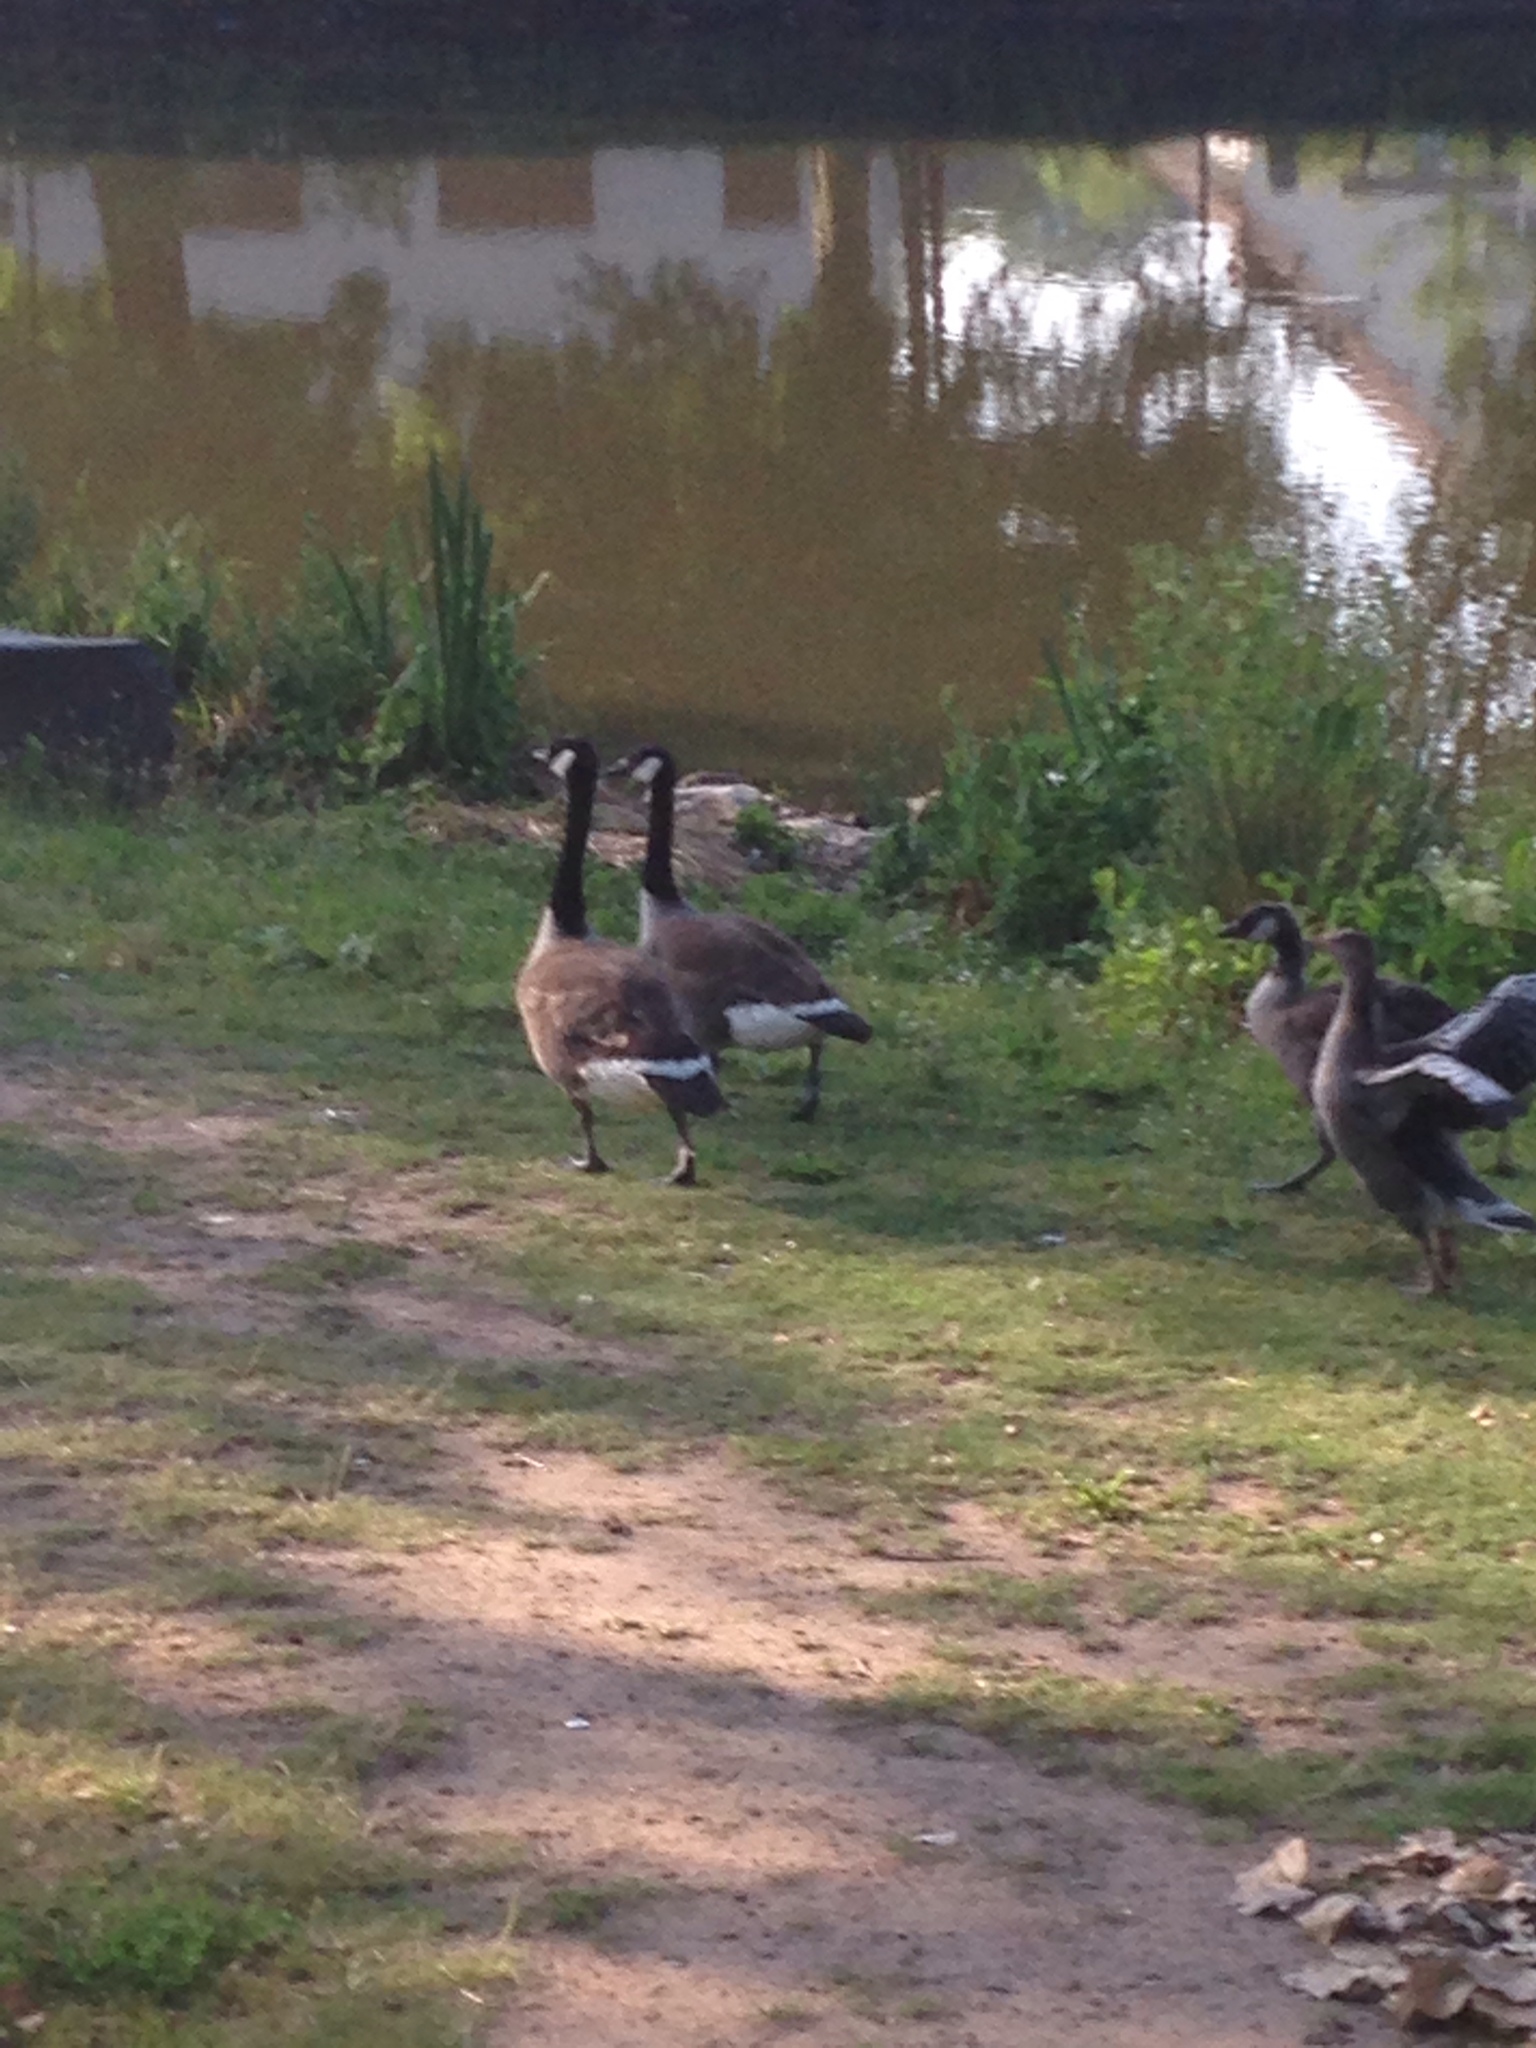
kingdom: Animalia
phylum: Chordata
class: Aves
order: Anseriformes
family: Anatidae
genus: Branta
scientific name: Branta canadensis
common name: Canada goose
